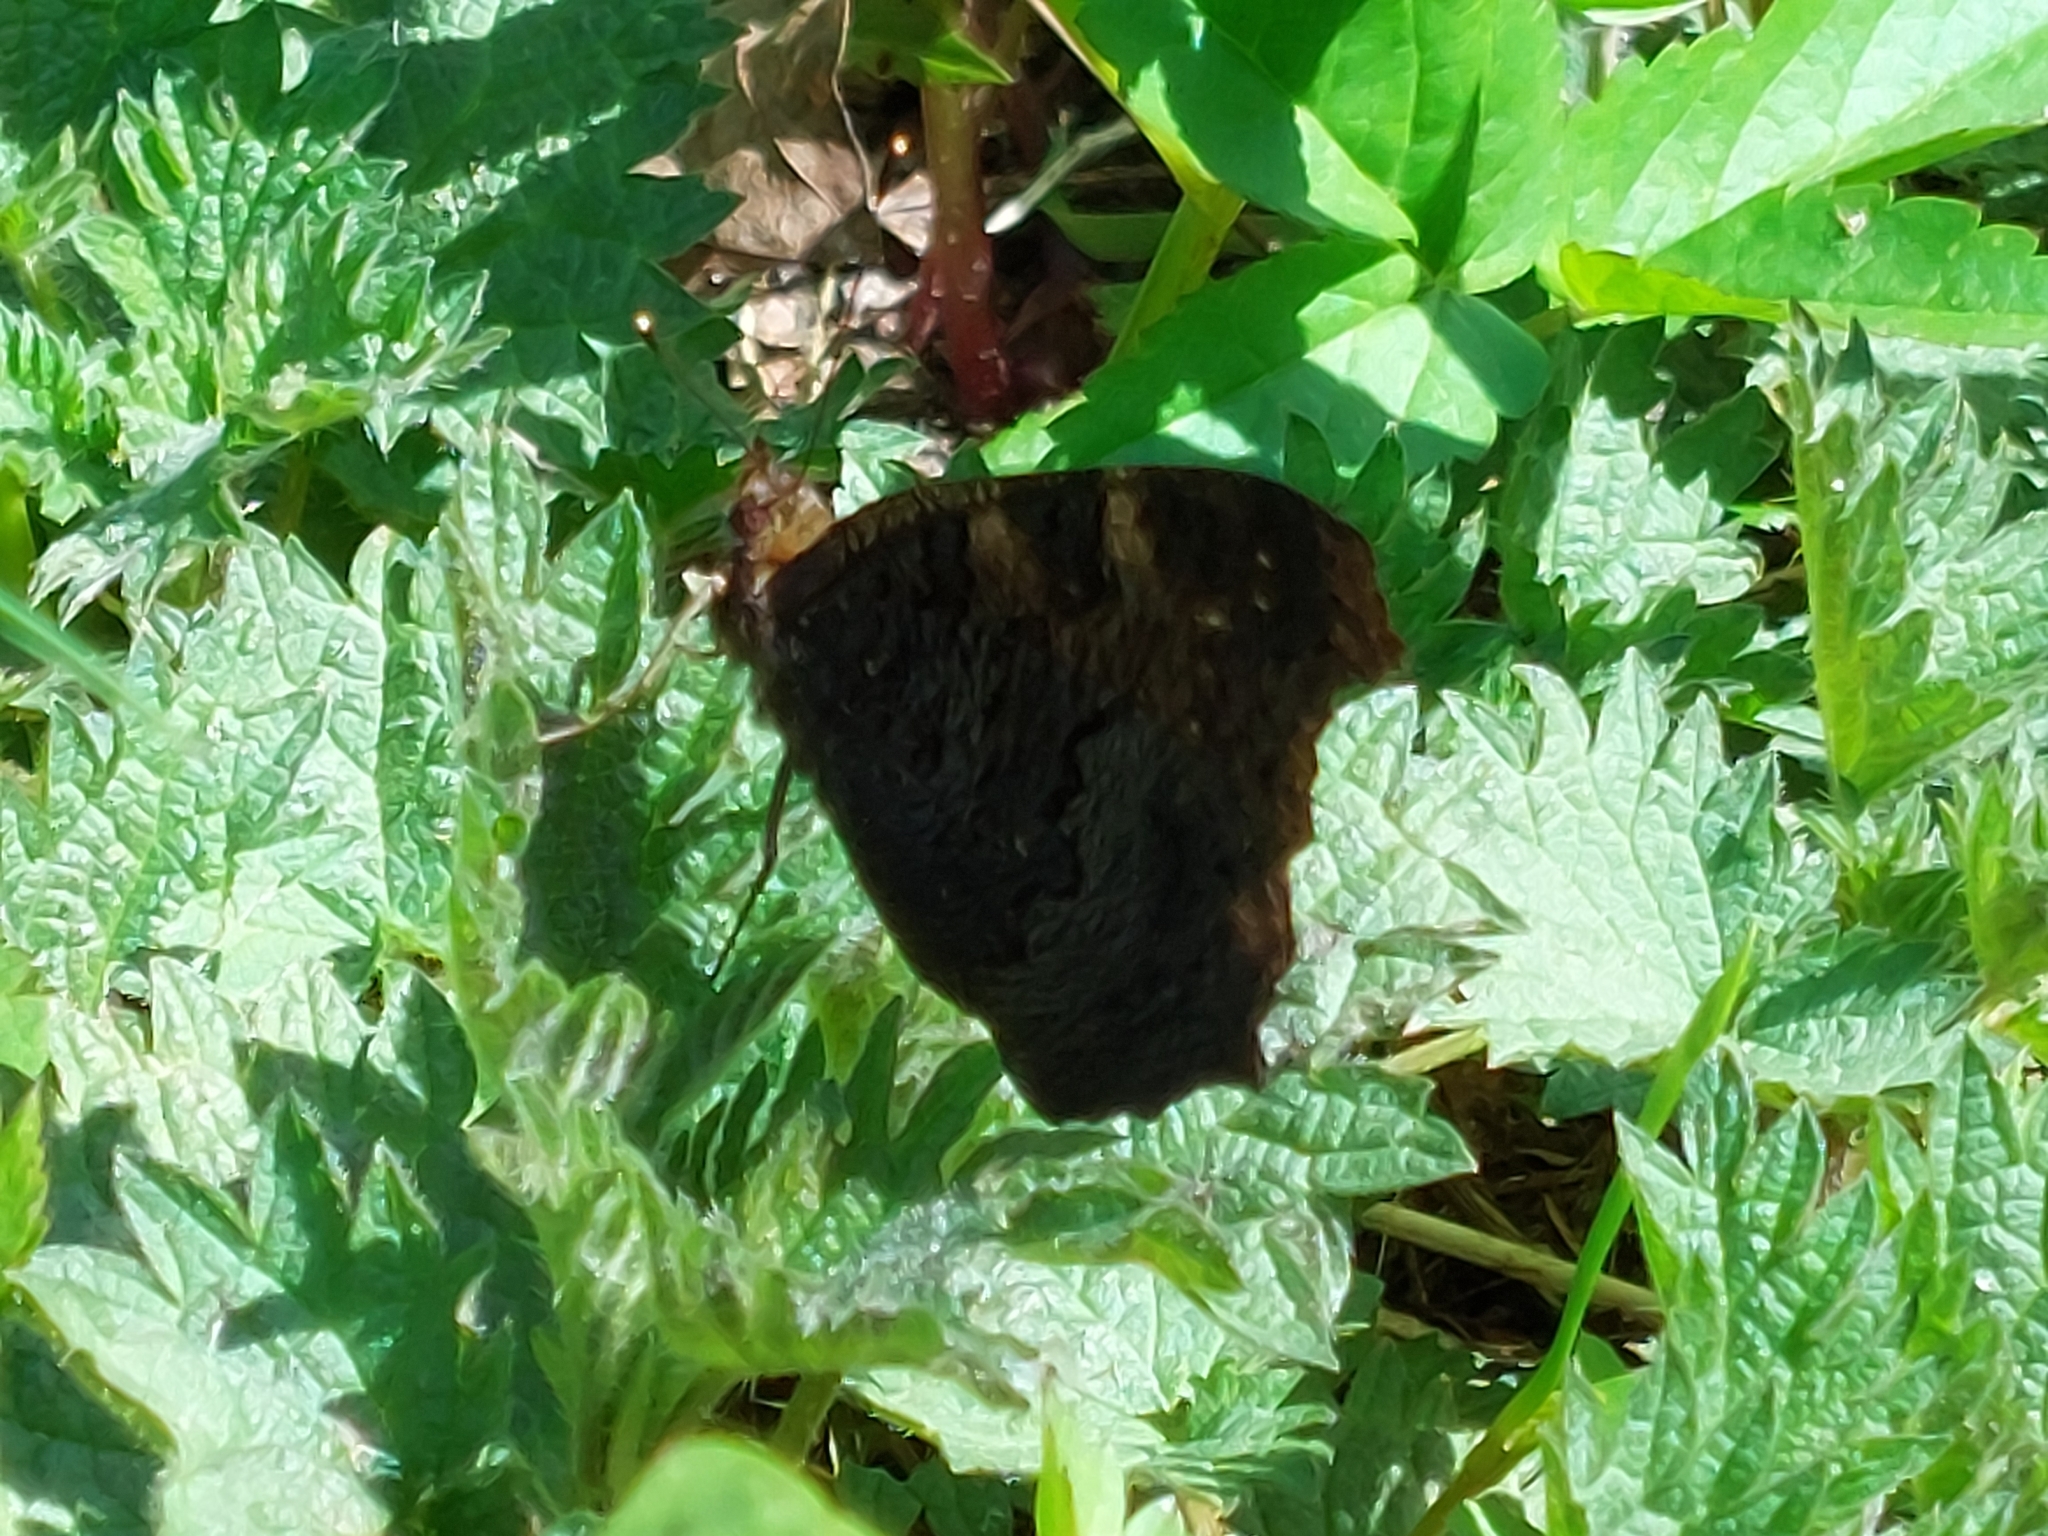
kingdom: Animalia
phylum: Arthropoda
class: Insecta
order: Lepidoptera
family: Nymphalidae
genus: Aglais
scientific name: Aglais io
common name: Peacock
